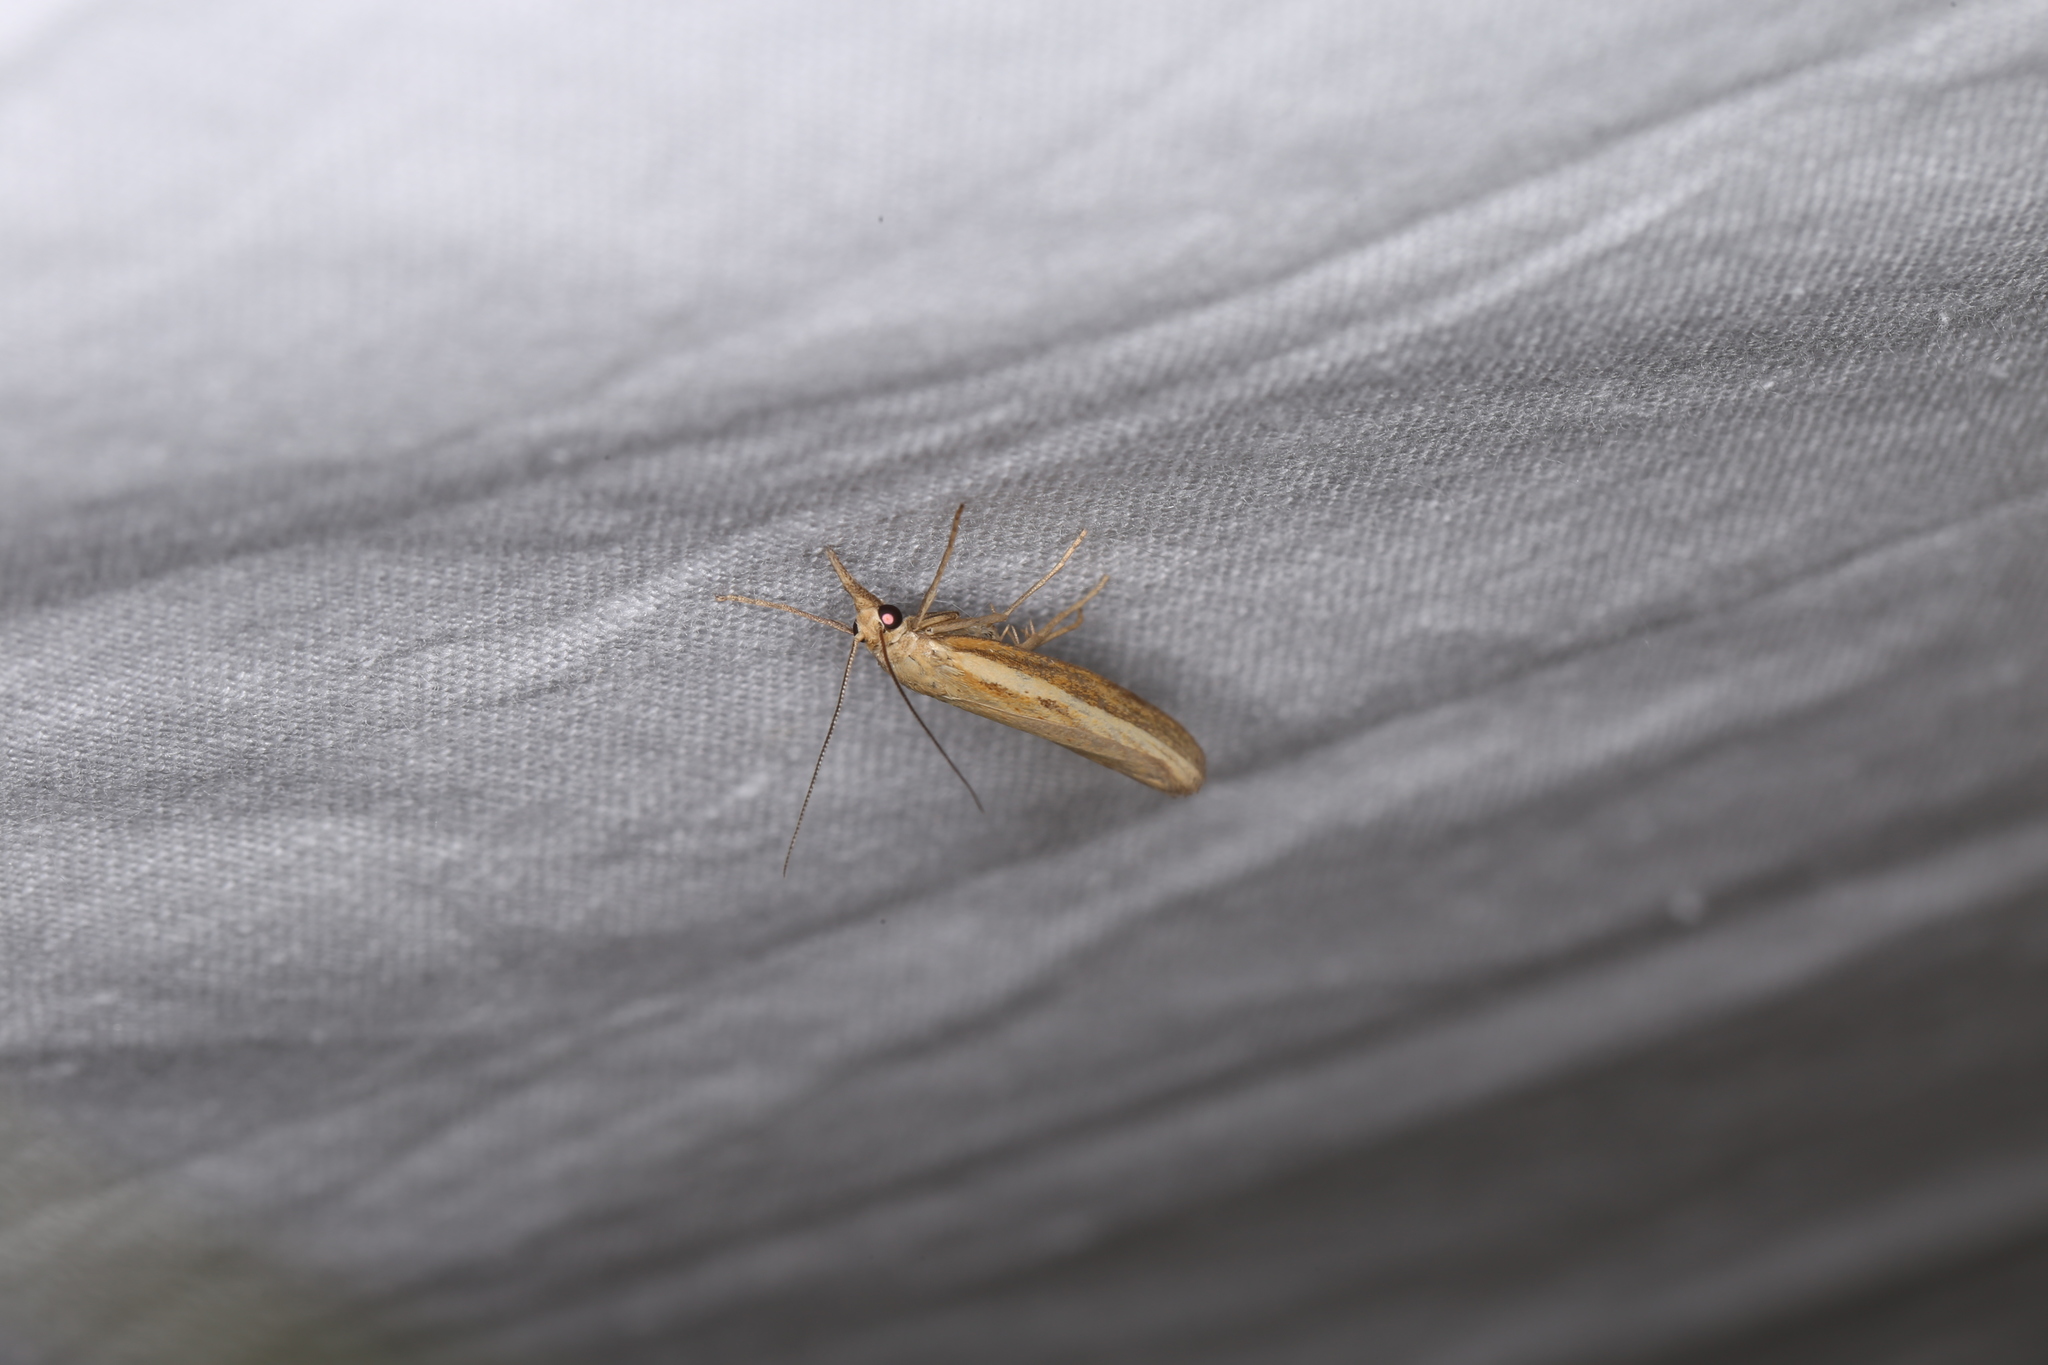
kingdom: Animalia
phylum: Arthropoda
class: Insecta
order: Lepidoptera
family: Crambidae
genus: Agriphila
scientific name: Agriphila tristellus
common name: Common grass-veneer
